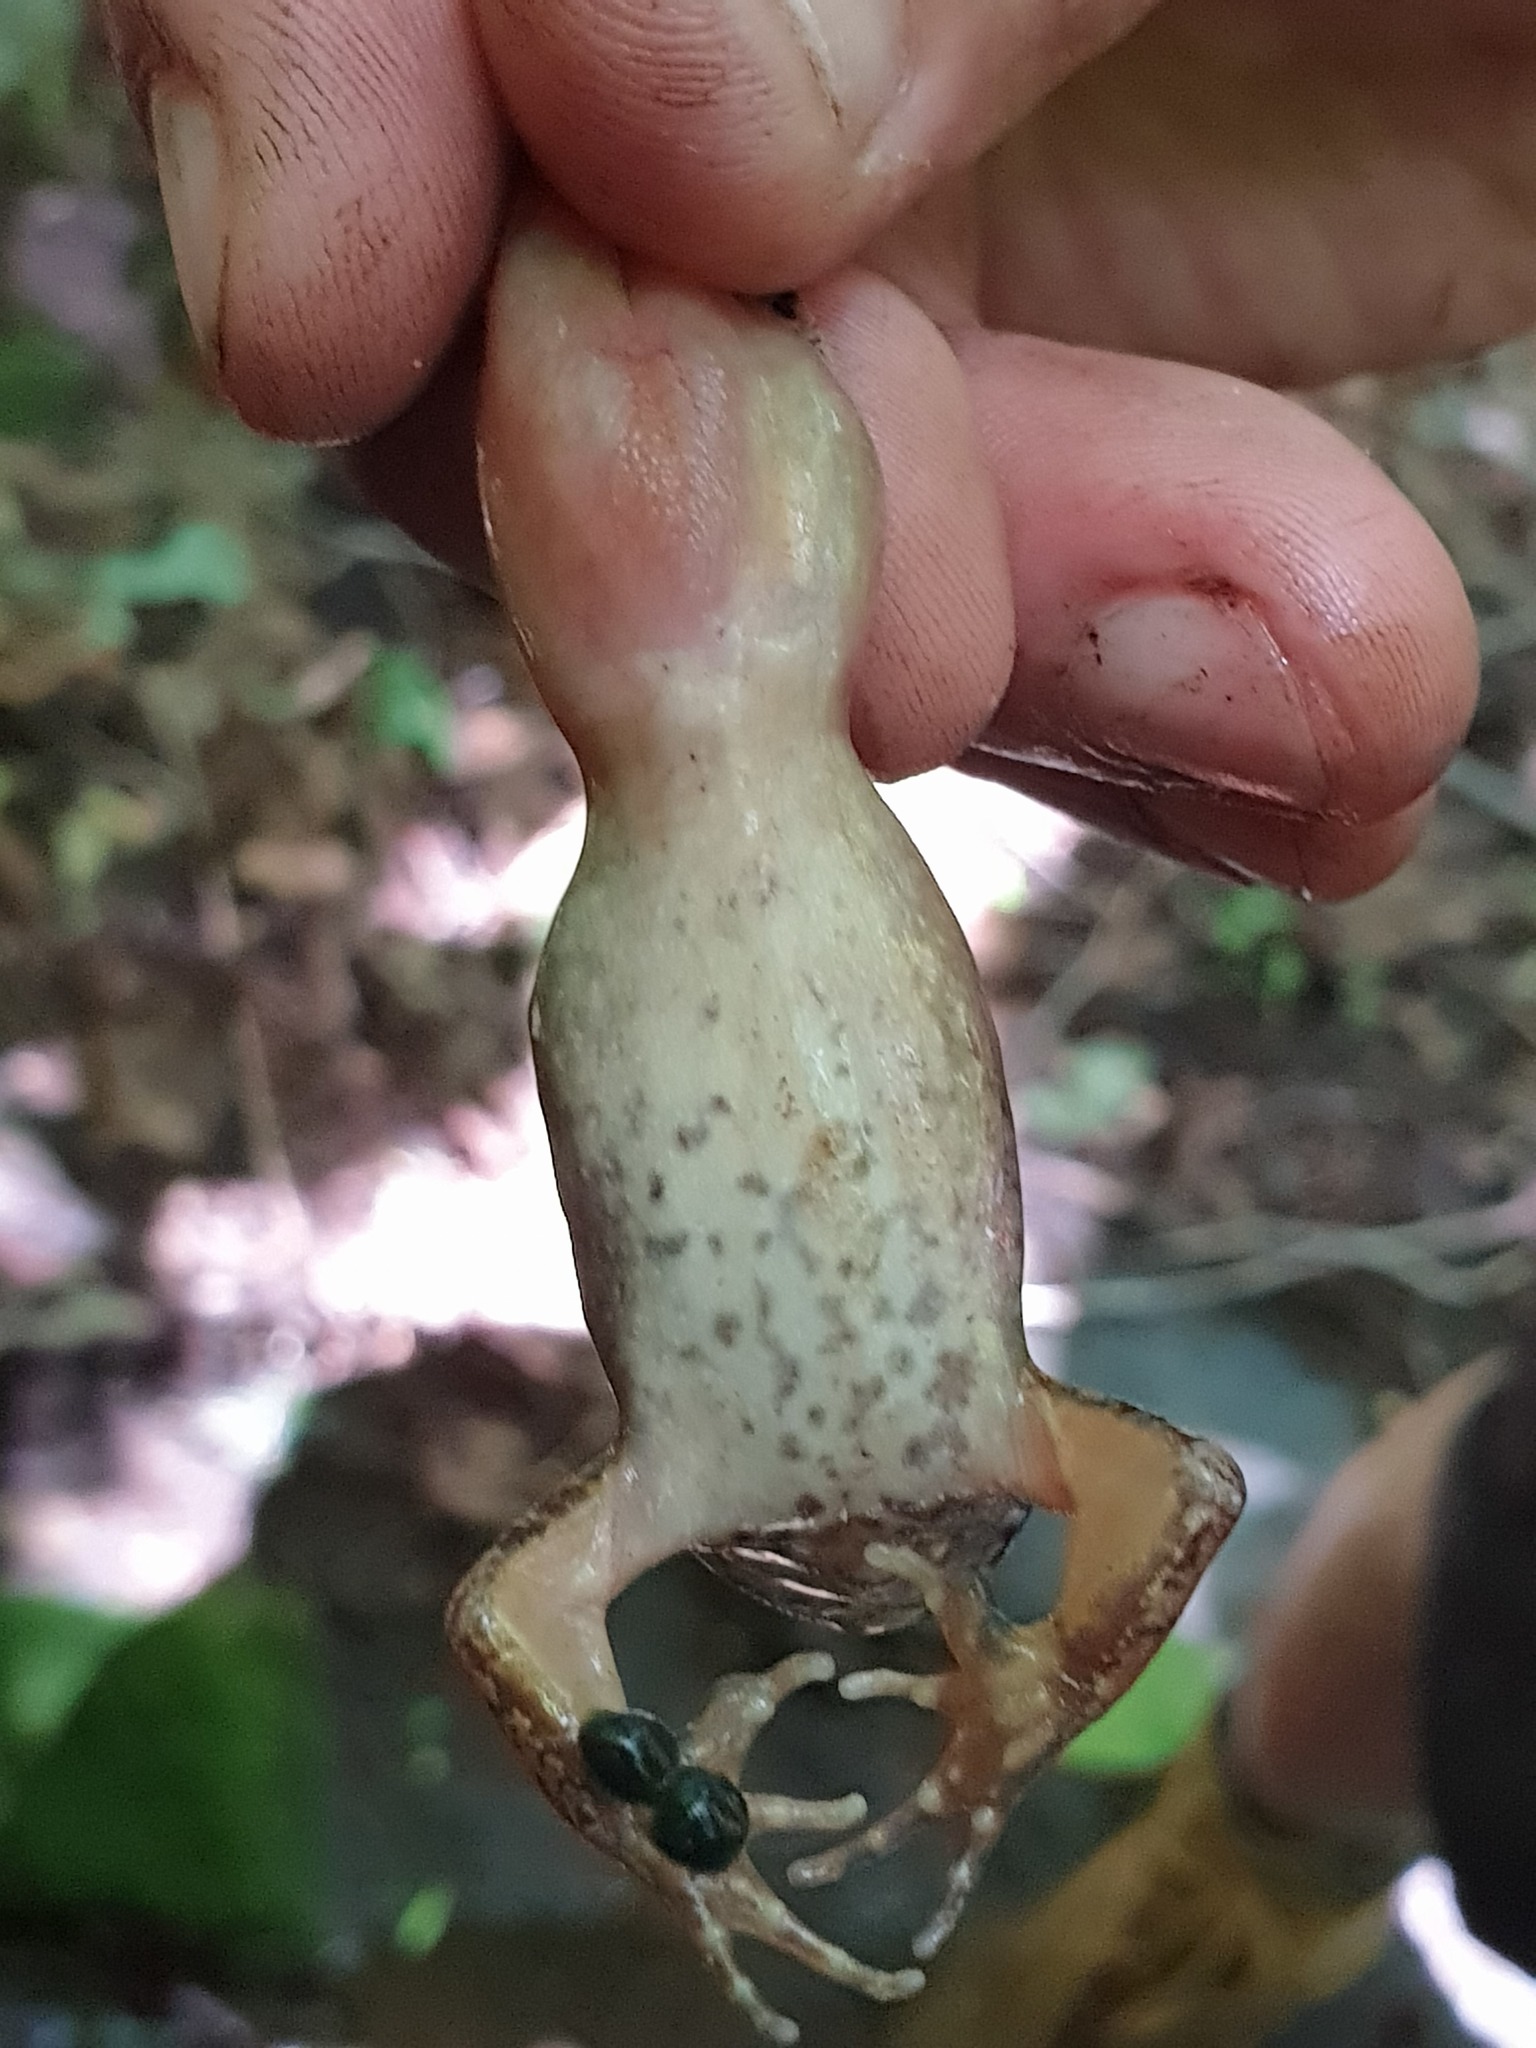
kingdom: Animalia
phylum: Chordata
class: Amphibia
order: Anura
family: Ranidae
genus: Rana
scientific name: Rana huanrenensis
